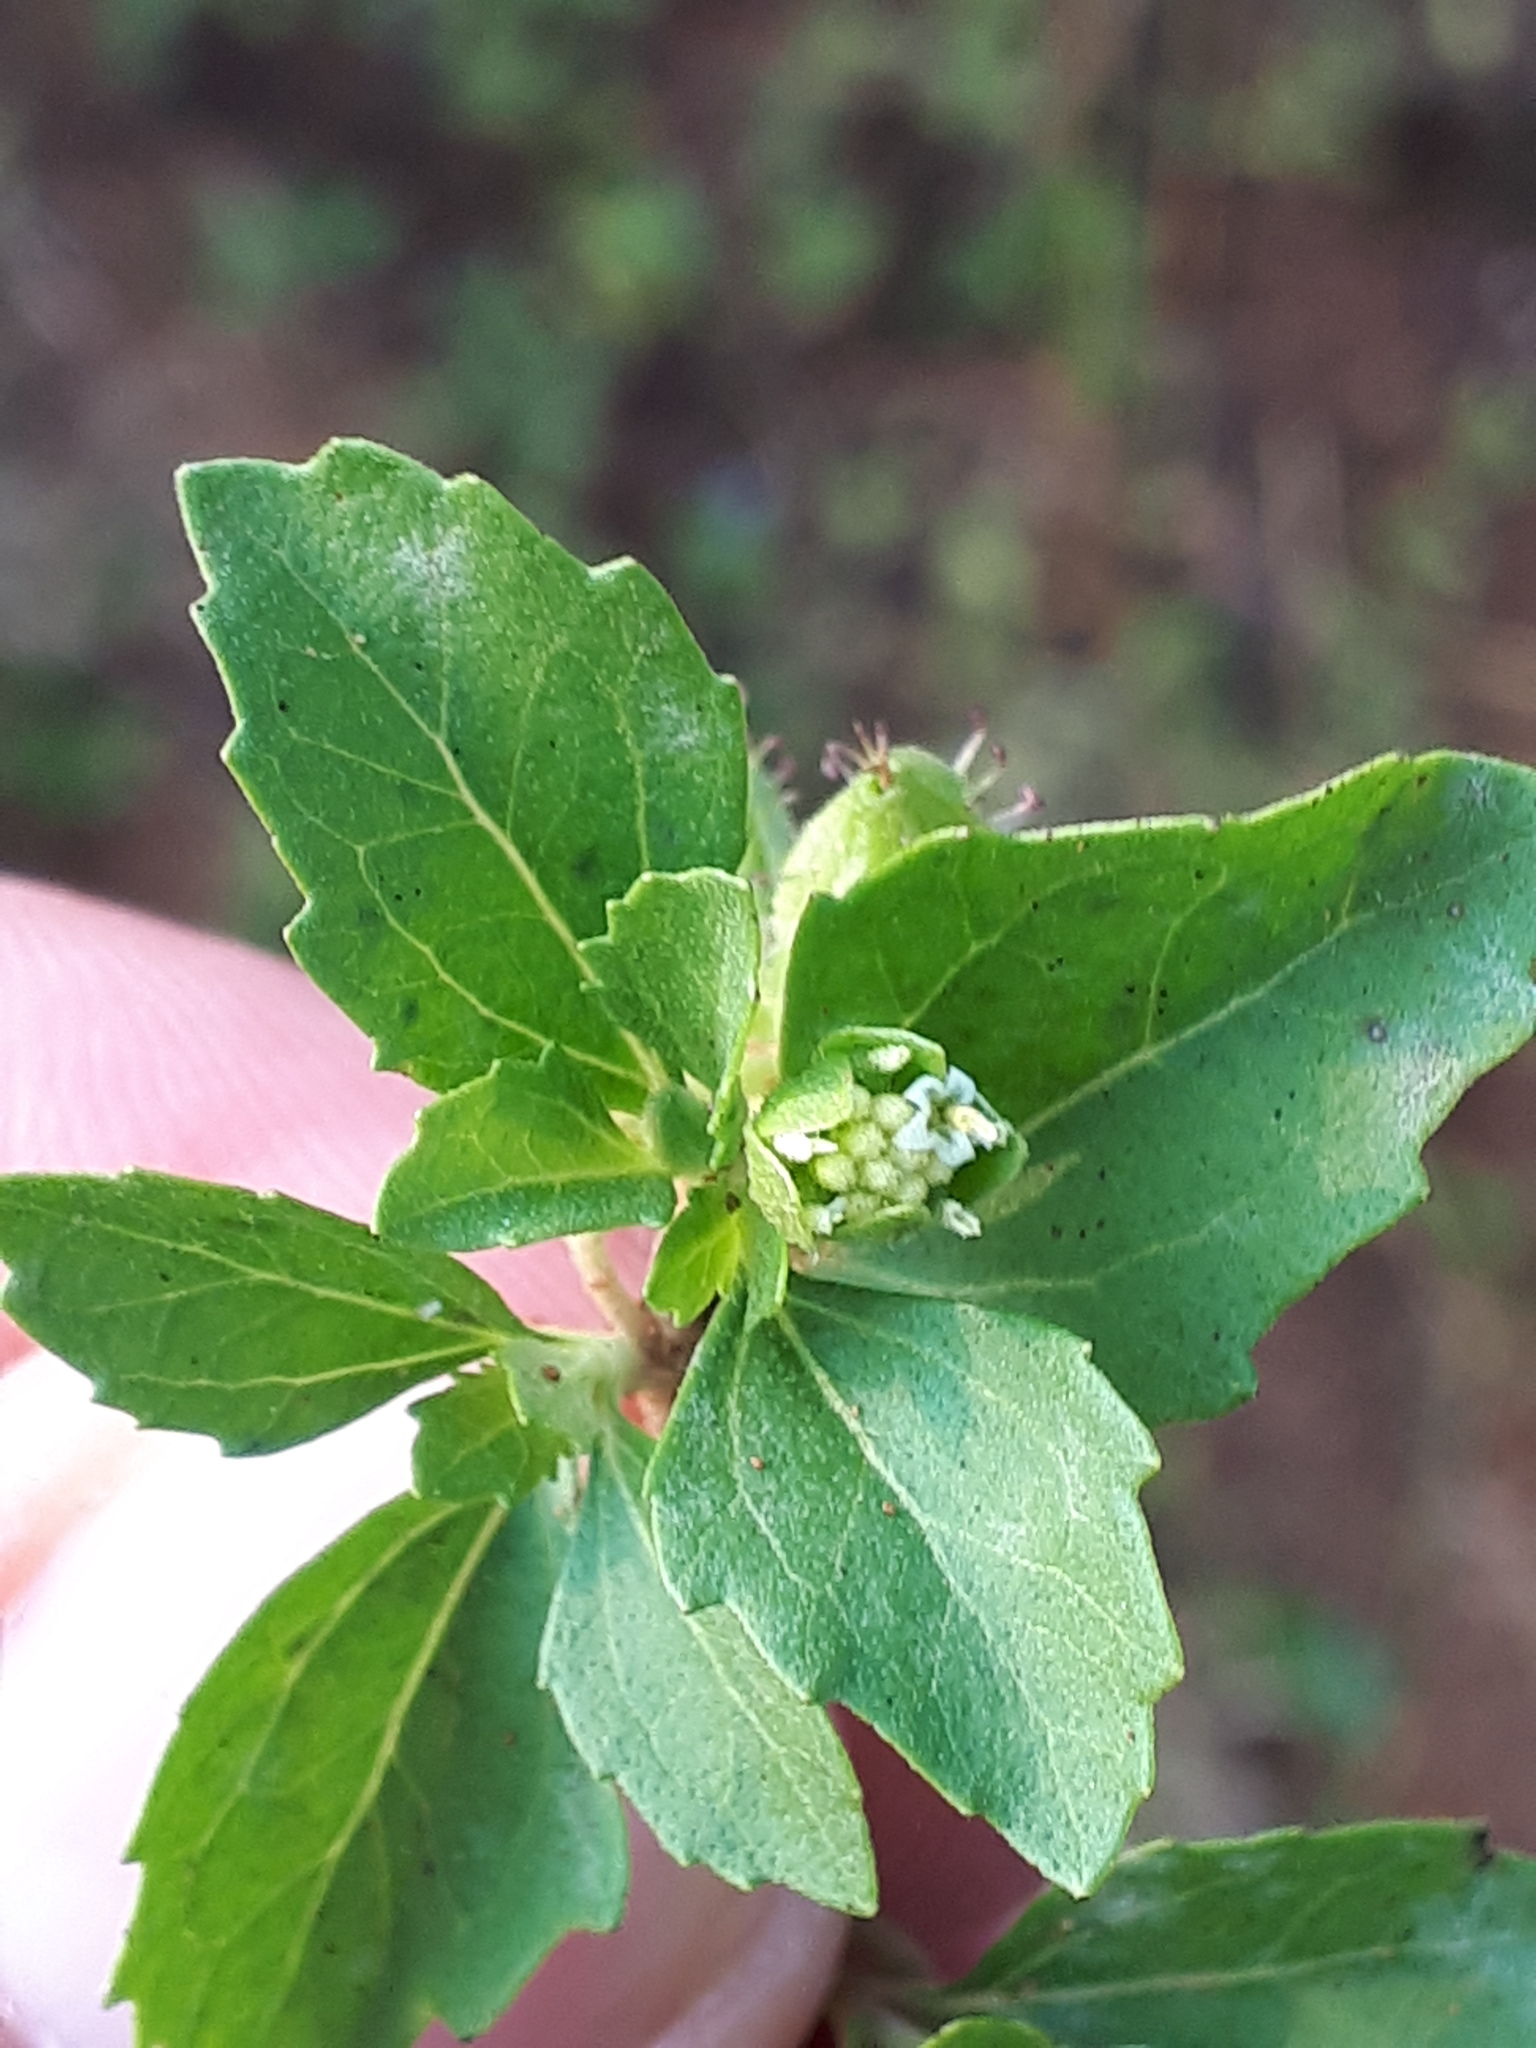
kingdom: Plantae
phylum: Tracheophyta
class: Magnoliopsida
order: Asterales
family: Asteraceae
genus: Acanthospermum
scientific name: Acanthospermum australe
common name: Paraguayan starbur
